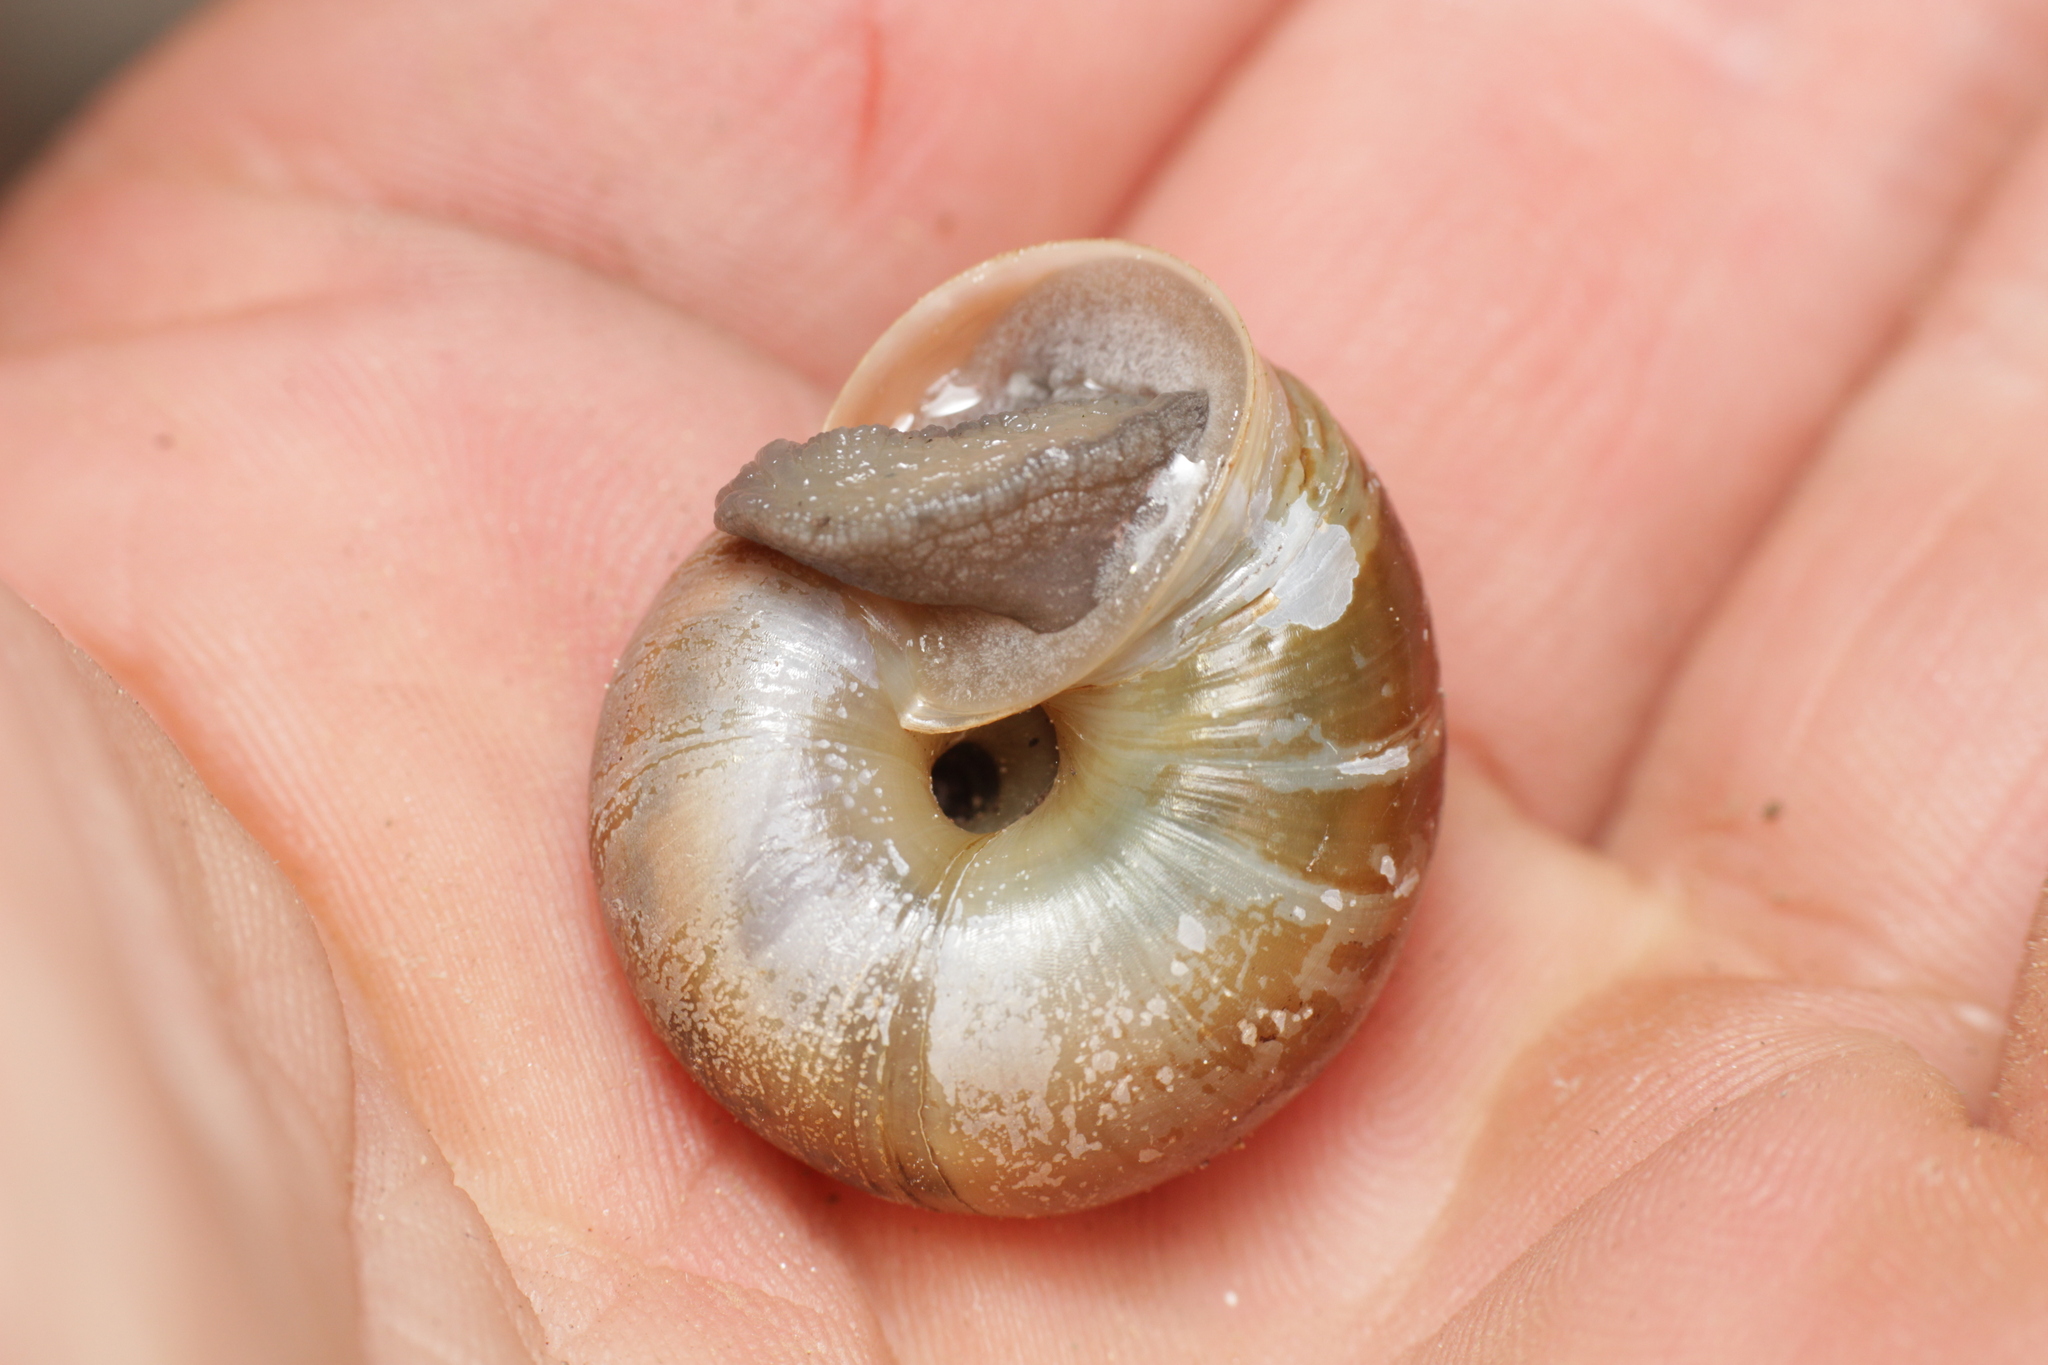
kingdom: Animalia
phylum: Mollusca
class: Gastropoda
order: Stylommatophora
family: Helicidae
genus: Chilostoma
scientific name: Chilostoma achates
